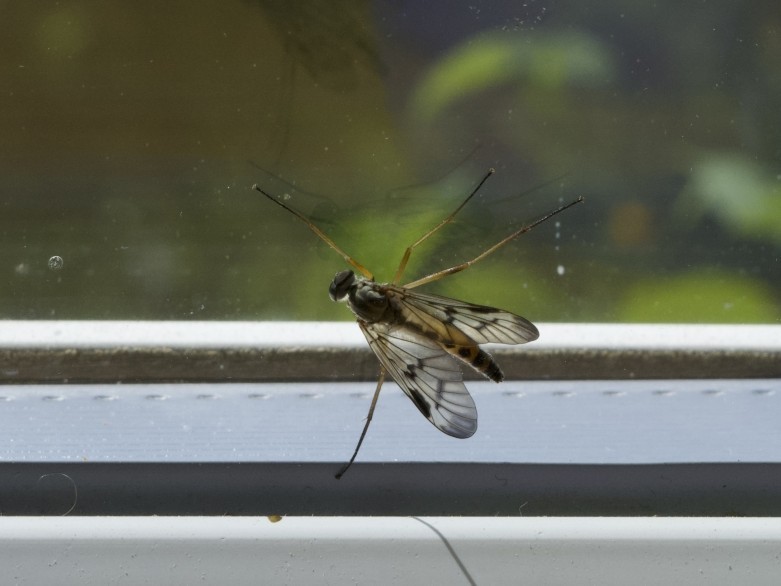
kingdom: Animalia
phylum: Arthropoda
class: Insecta
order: Diptera
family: Rhagionidae
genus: Rhagio
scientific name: Rhagio scolopacea
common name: Downlooker snipefly
